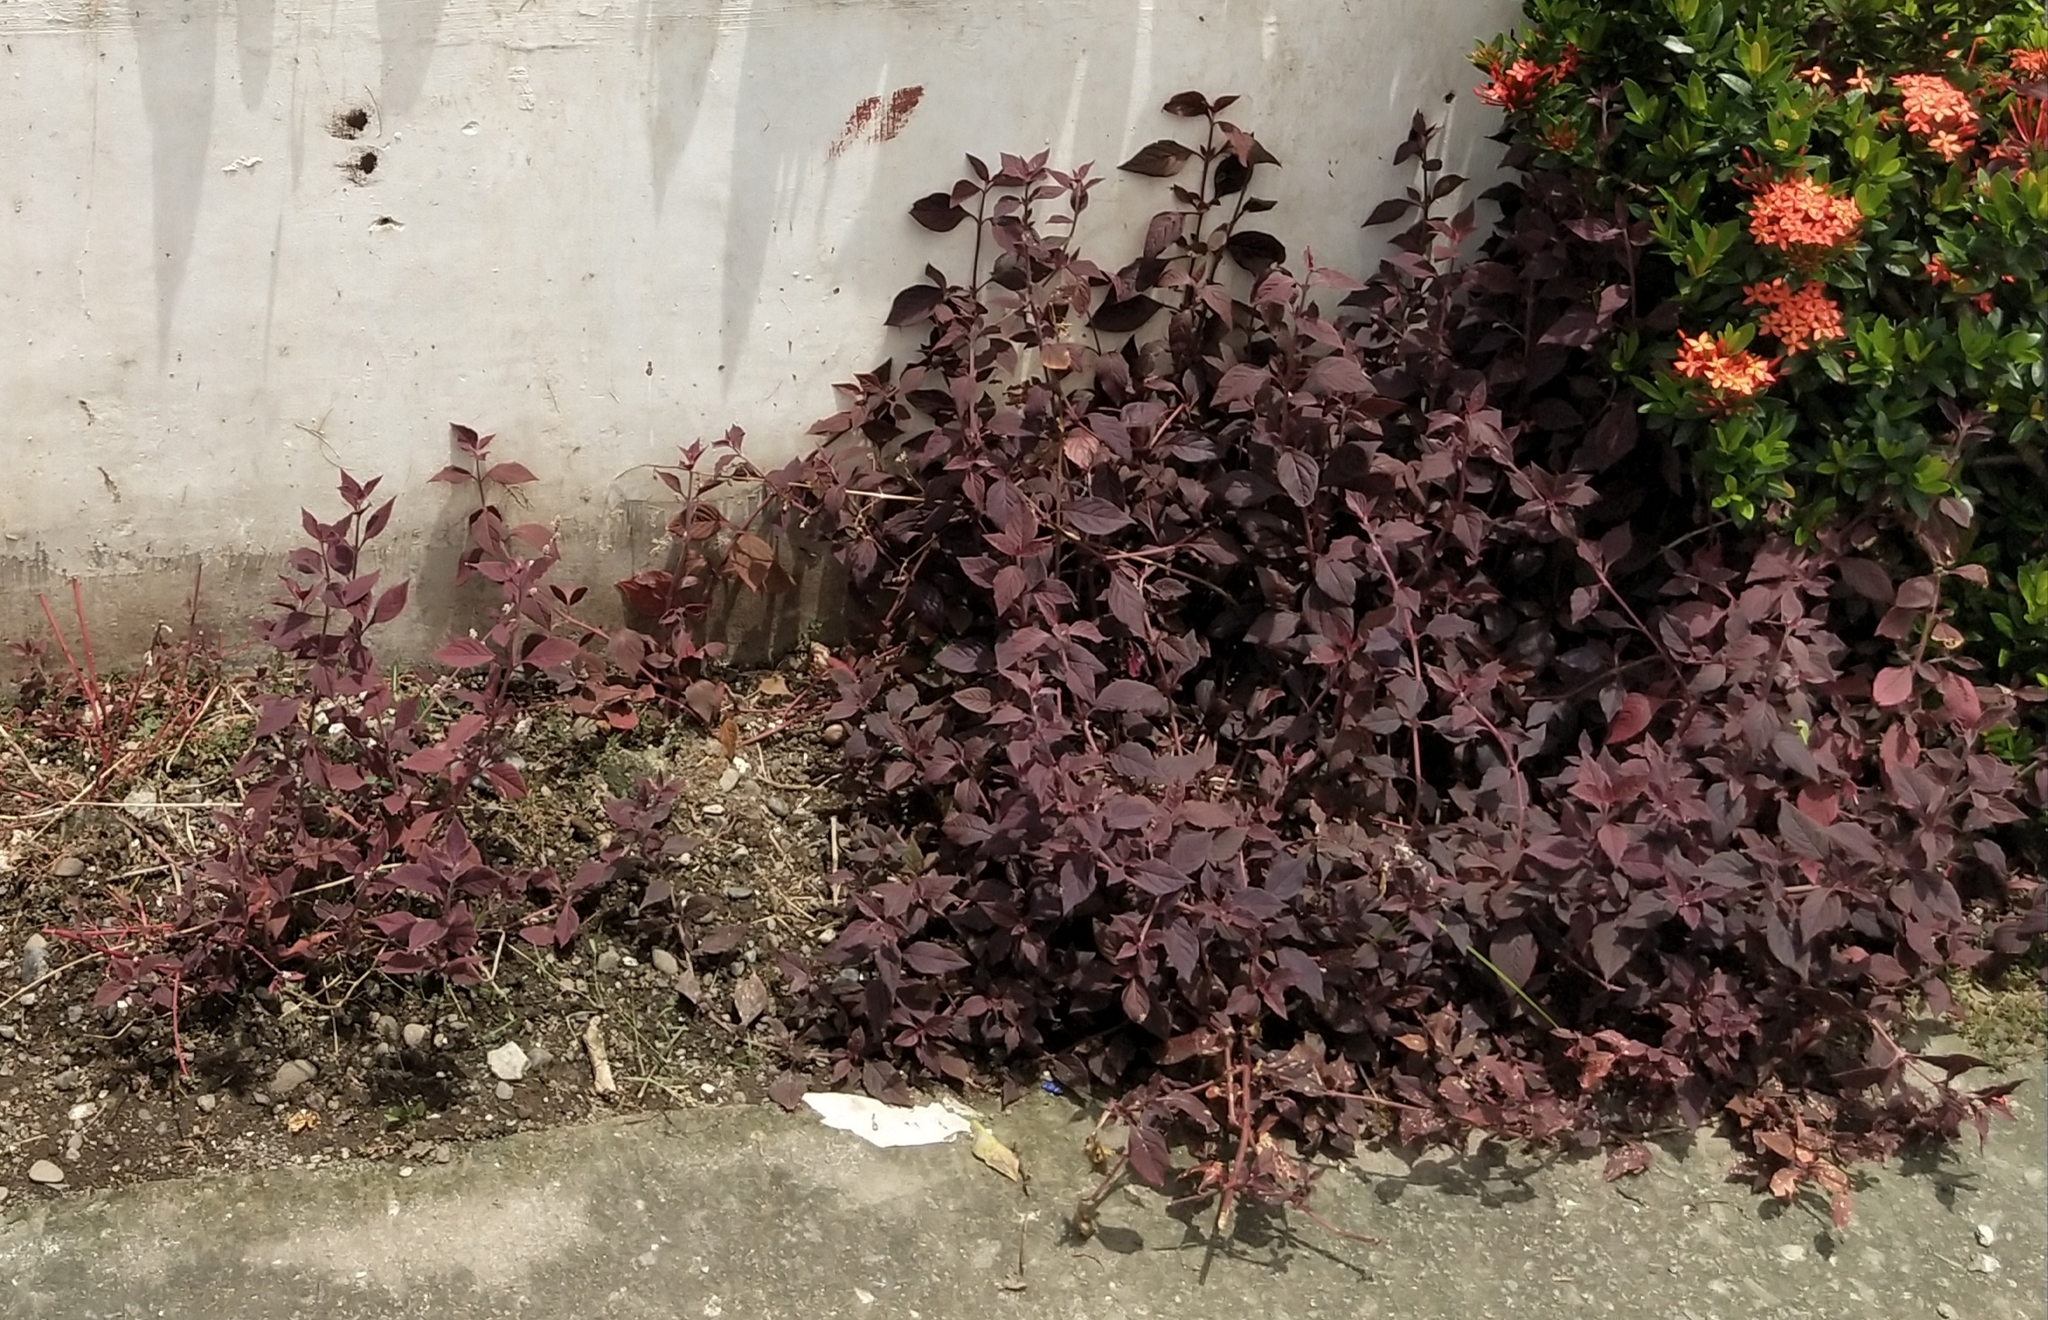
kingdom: Plantae
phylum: Tracheophyta
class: Magnoliopsida
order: Caryophyllales
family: Amaranthaceae
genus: Alternanthera
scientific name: Alternanthera brasiliana
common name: Brazilian joyweed
